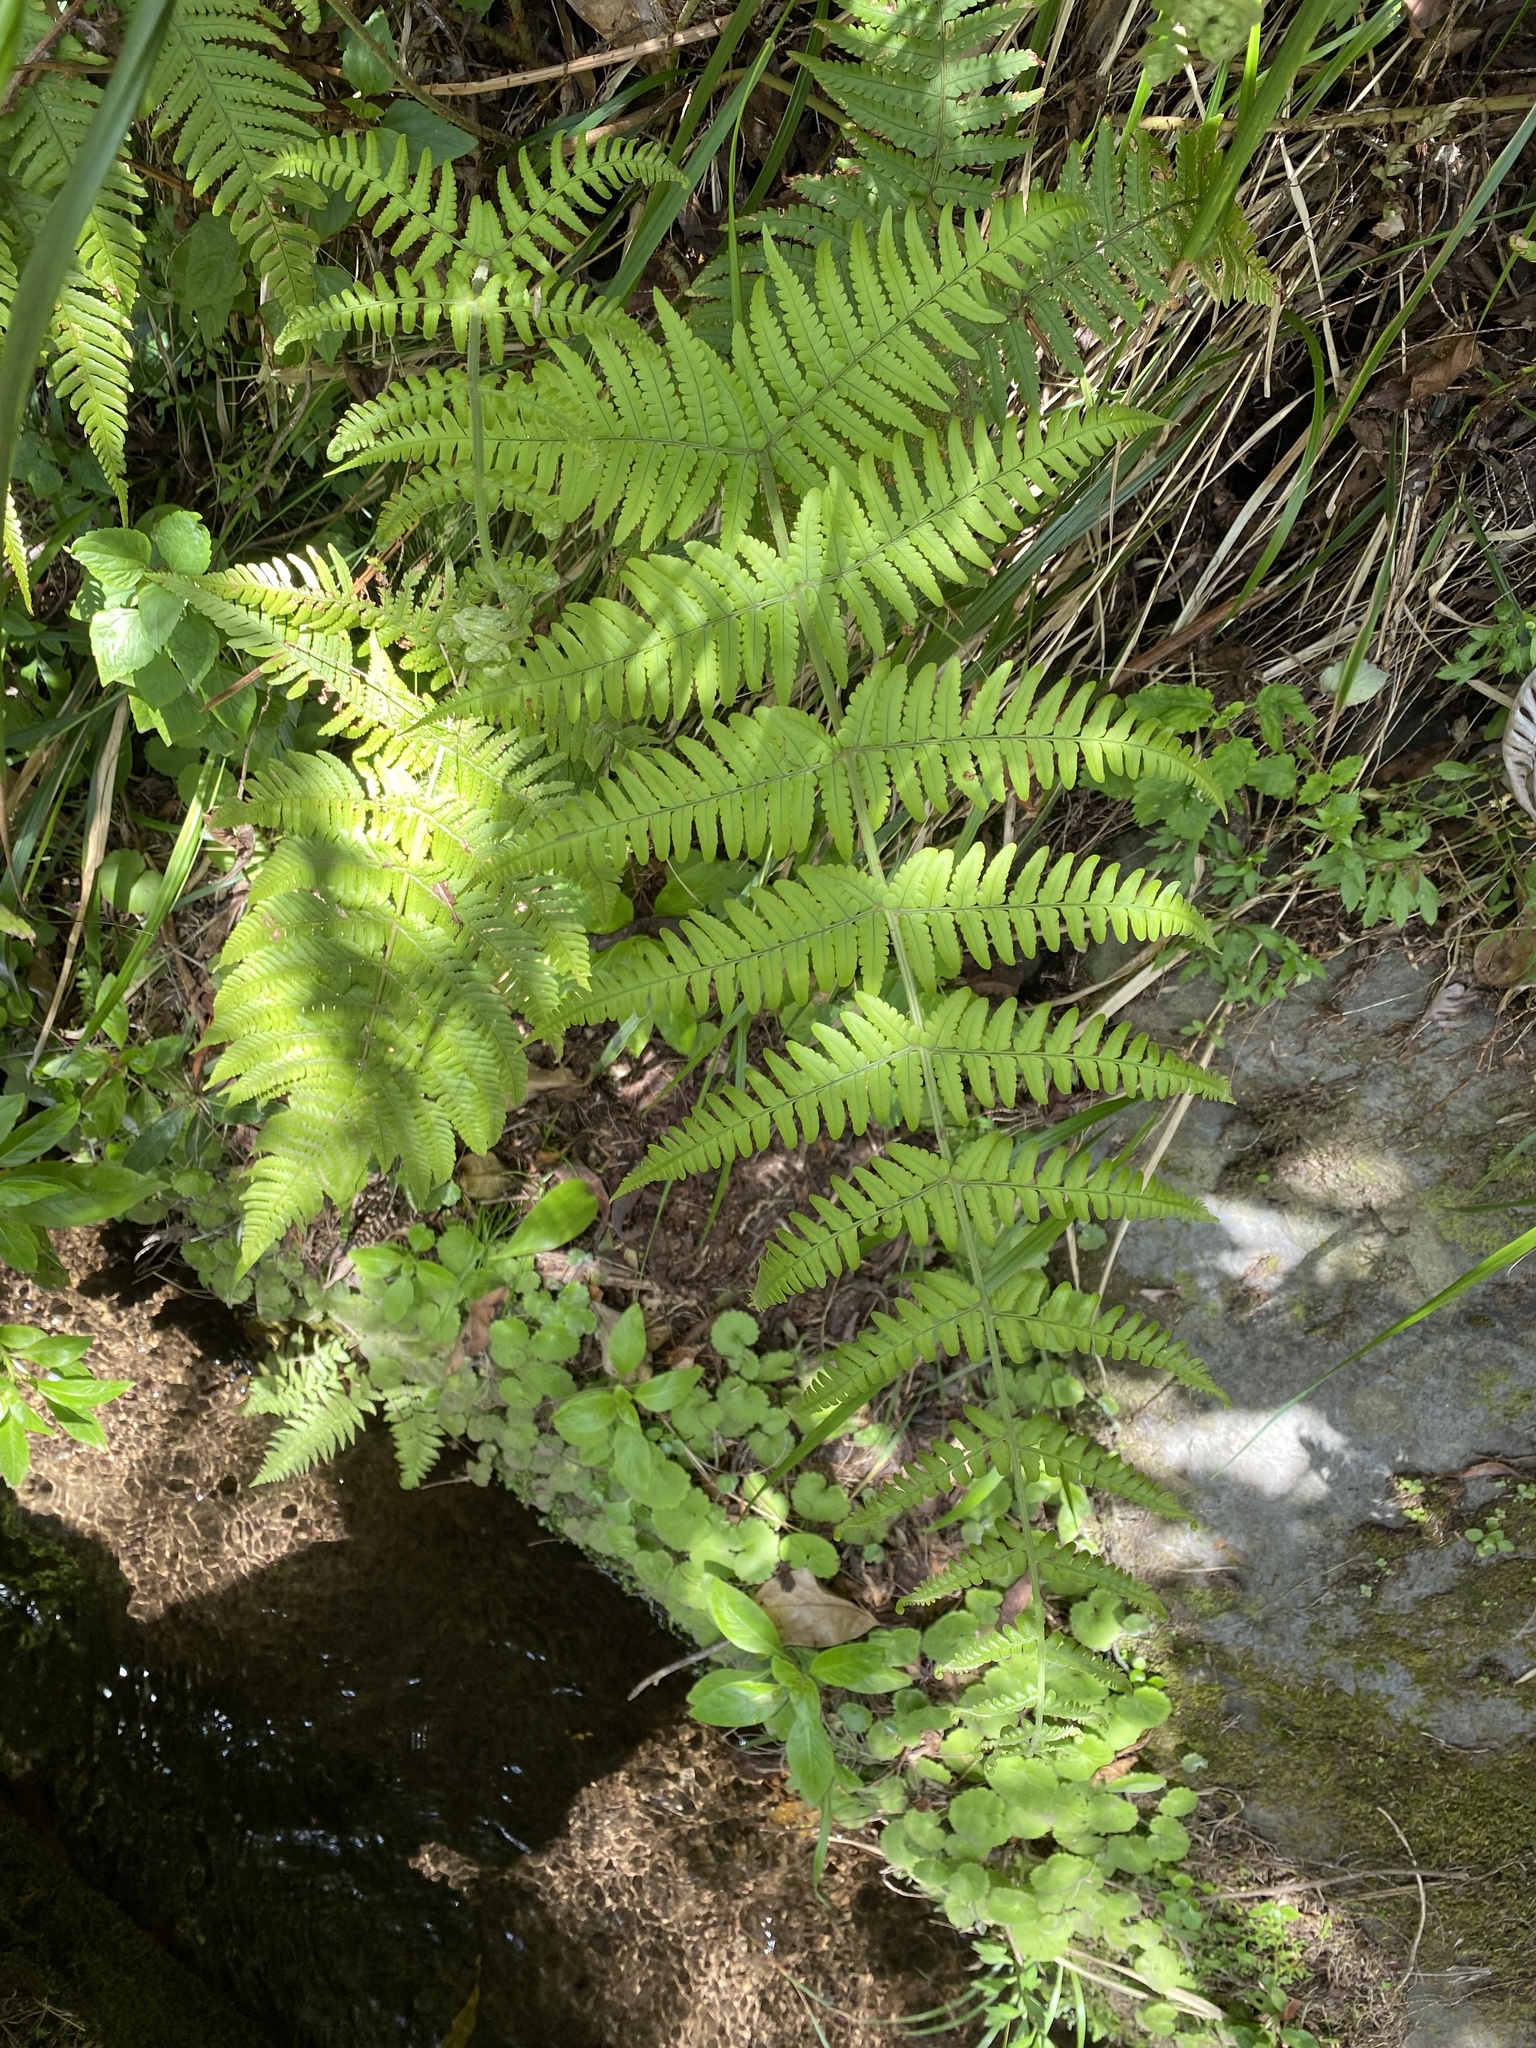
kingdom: Plantae
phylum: Tracheophyta
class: Polypodiopsida
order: Polypodiales
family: Dryopteridaceae
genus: Dryopteris
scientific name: Dryopteris aitoniana
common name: Aiton's buckler-fern
